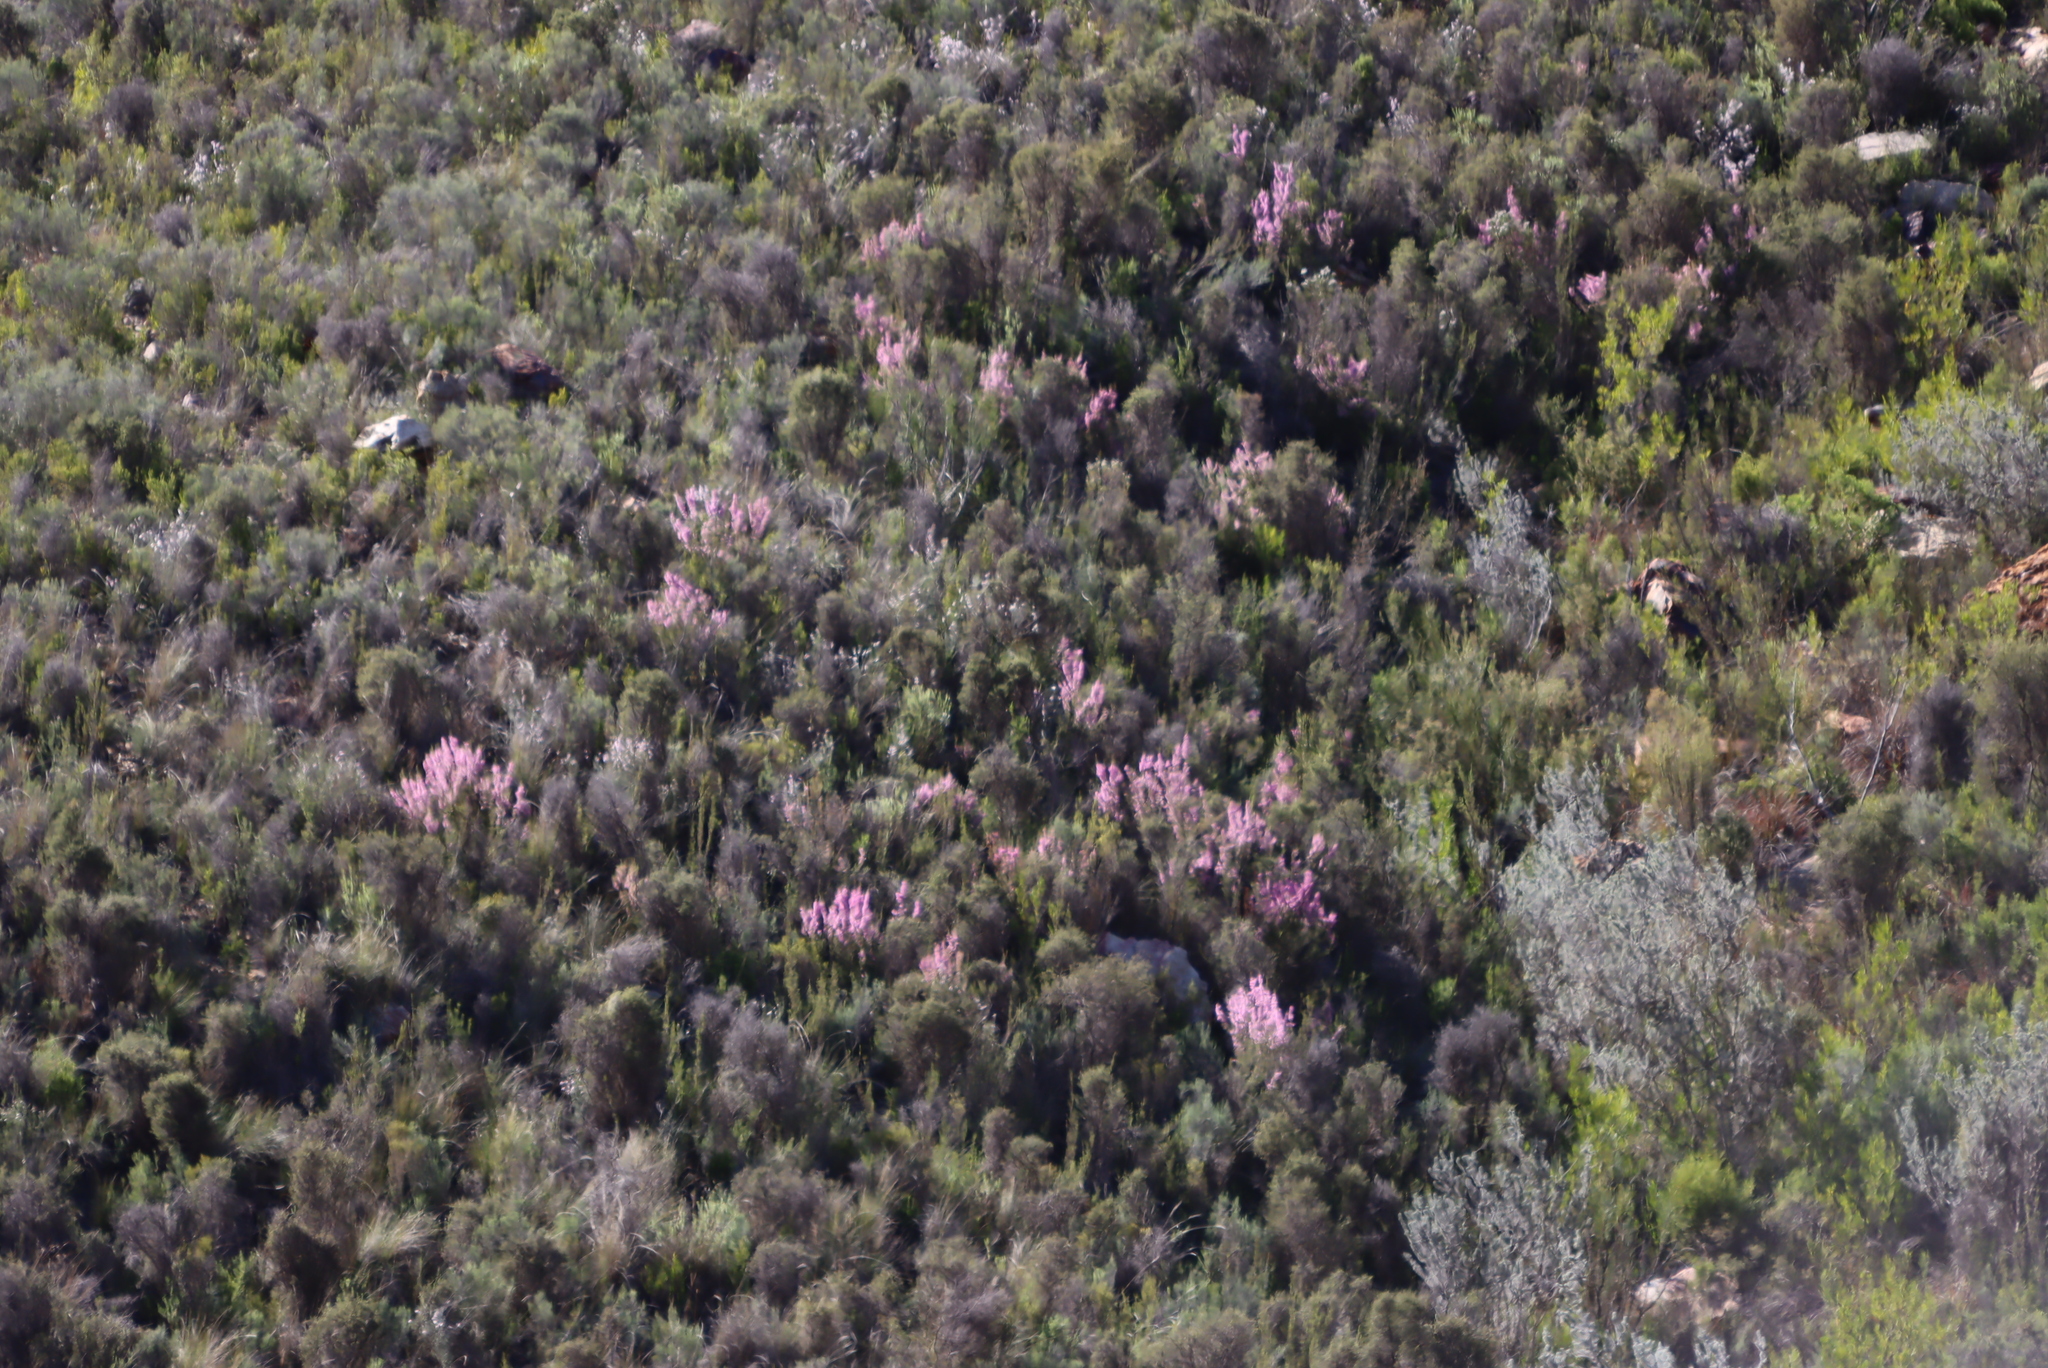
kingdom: Plantae
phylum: Tracheophyta
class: Magnoliopsida
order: Ericales
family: Ericaceae
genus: Erica
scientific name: Erica newdigatei
